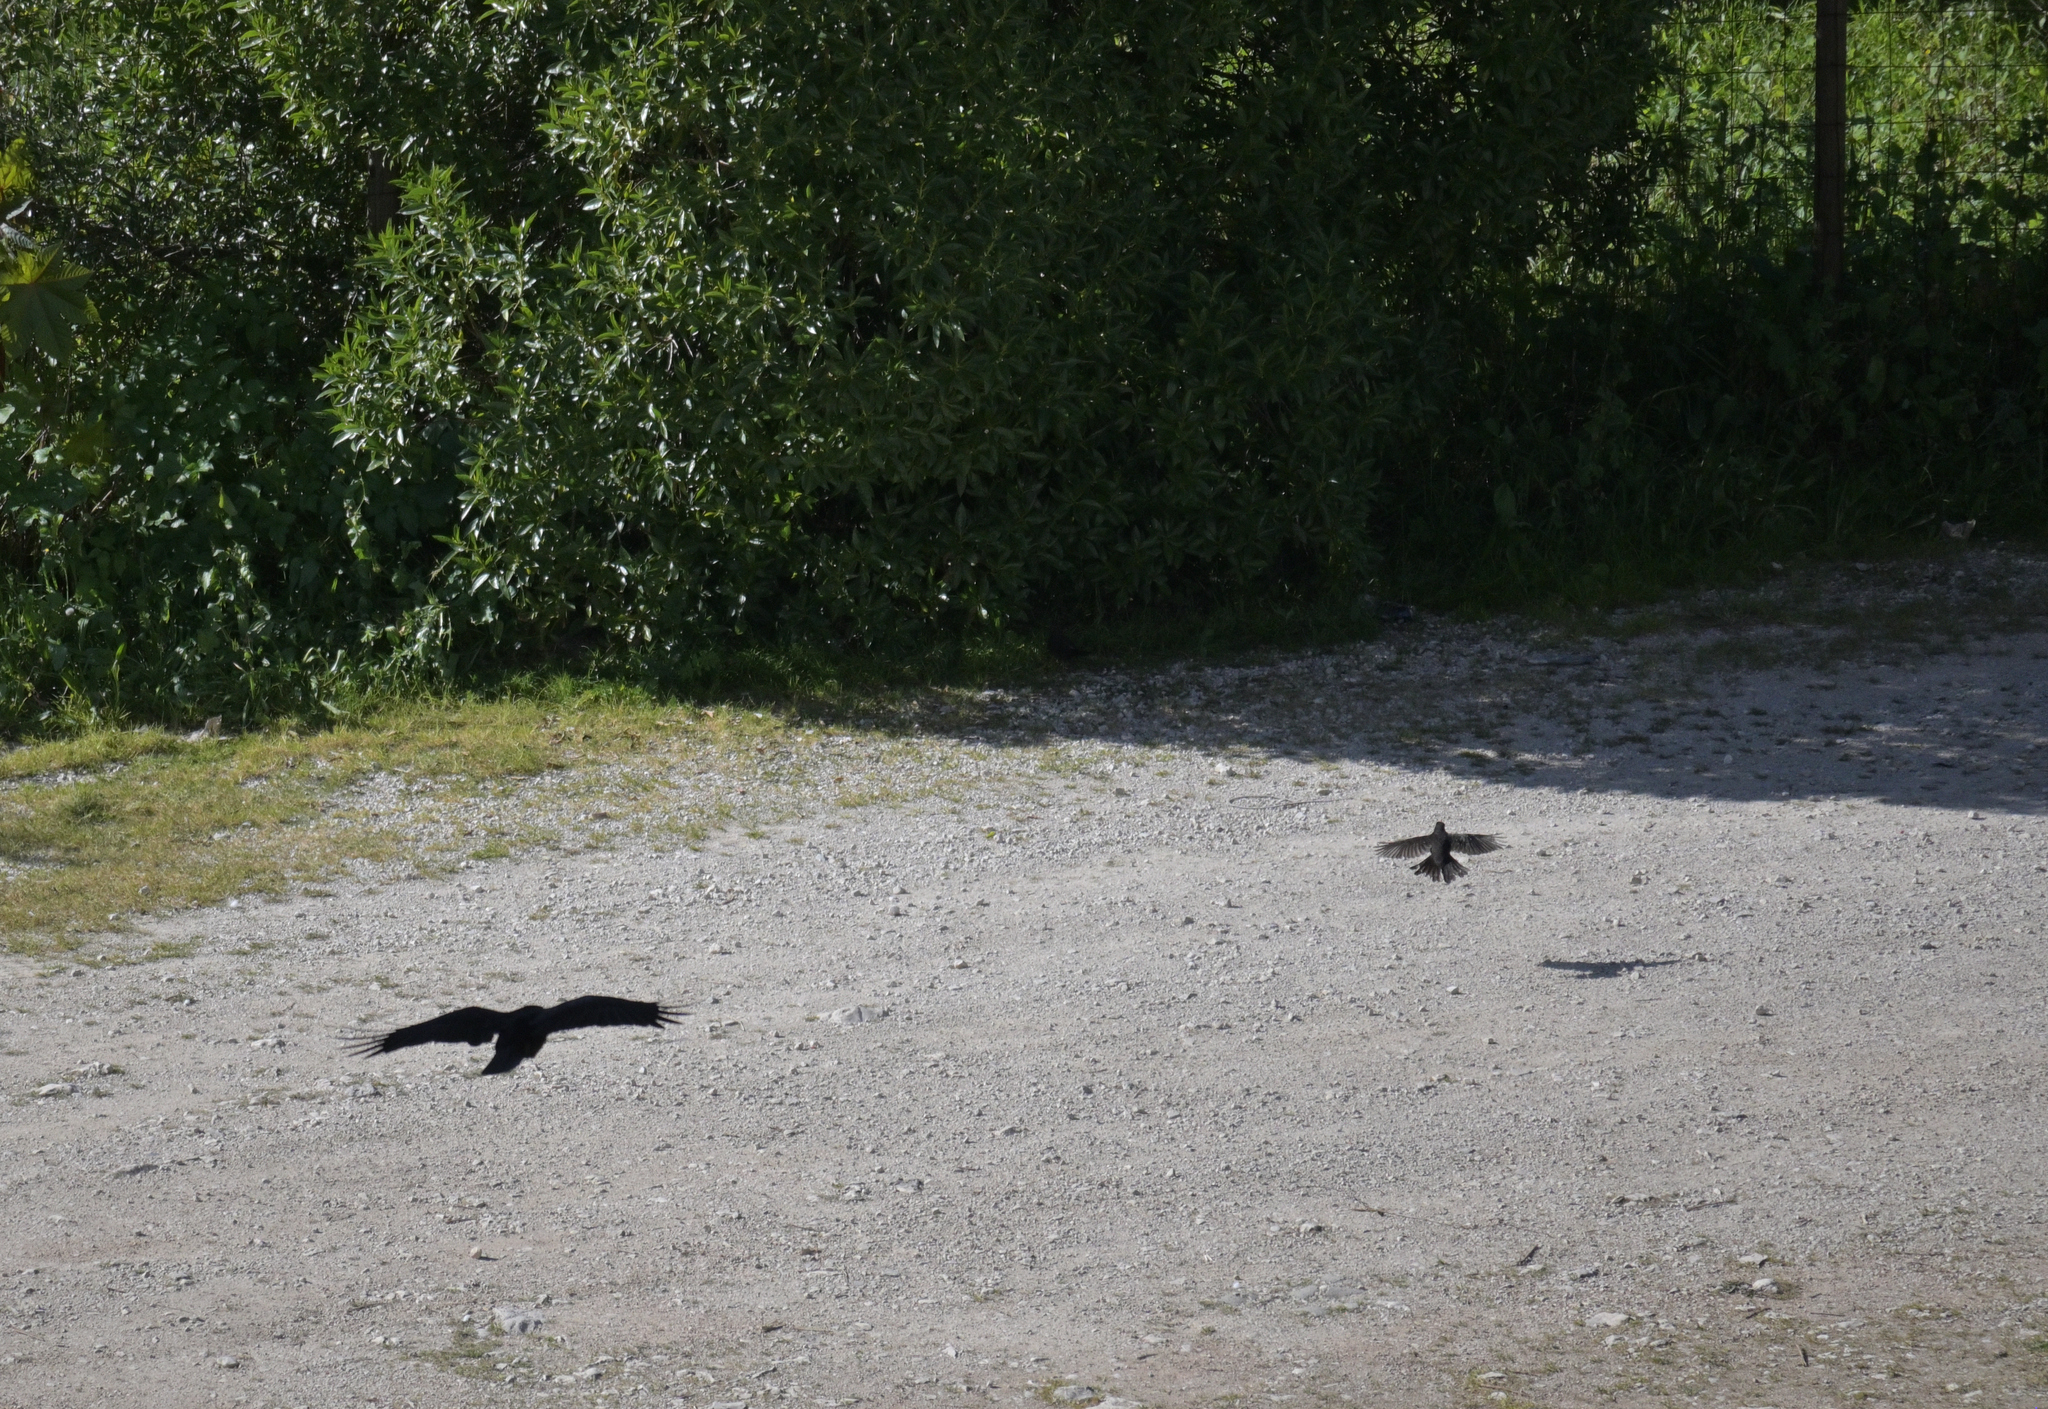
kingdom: Animalia
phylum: Chordata
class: Aves
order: Passeriformes
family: Corvidae
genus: Corvus
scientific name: Corvus corone
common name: Carrion crow
